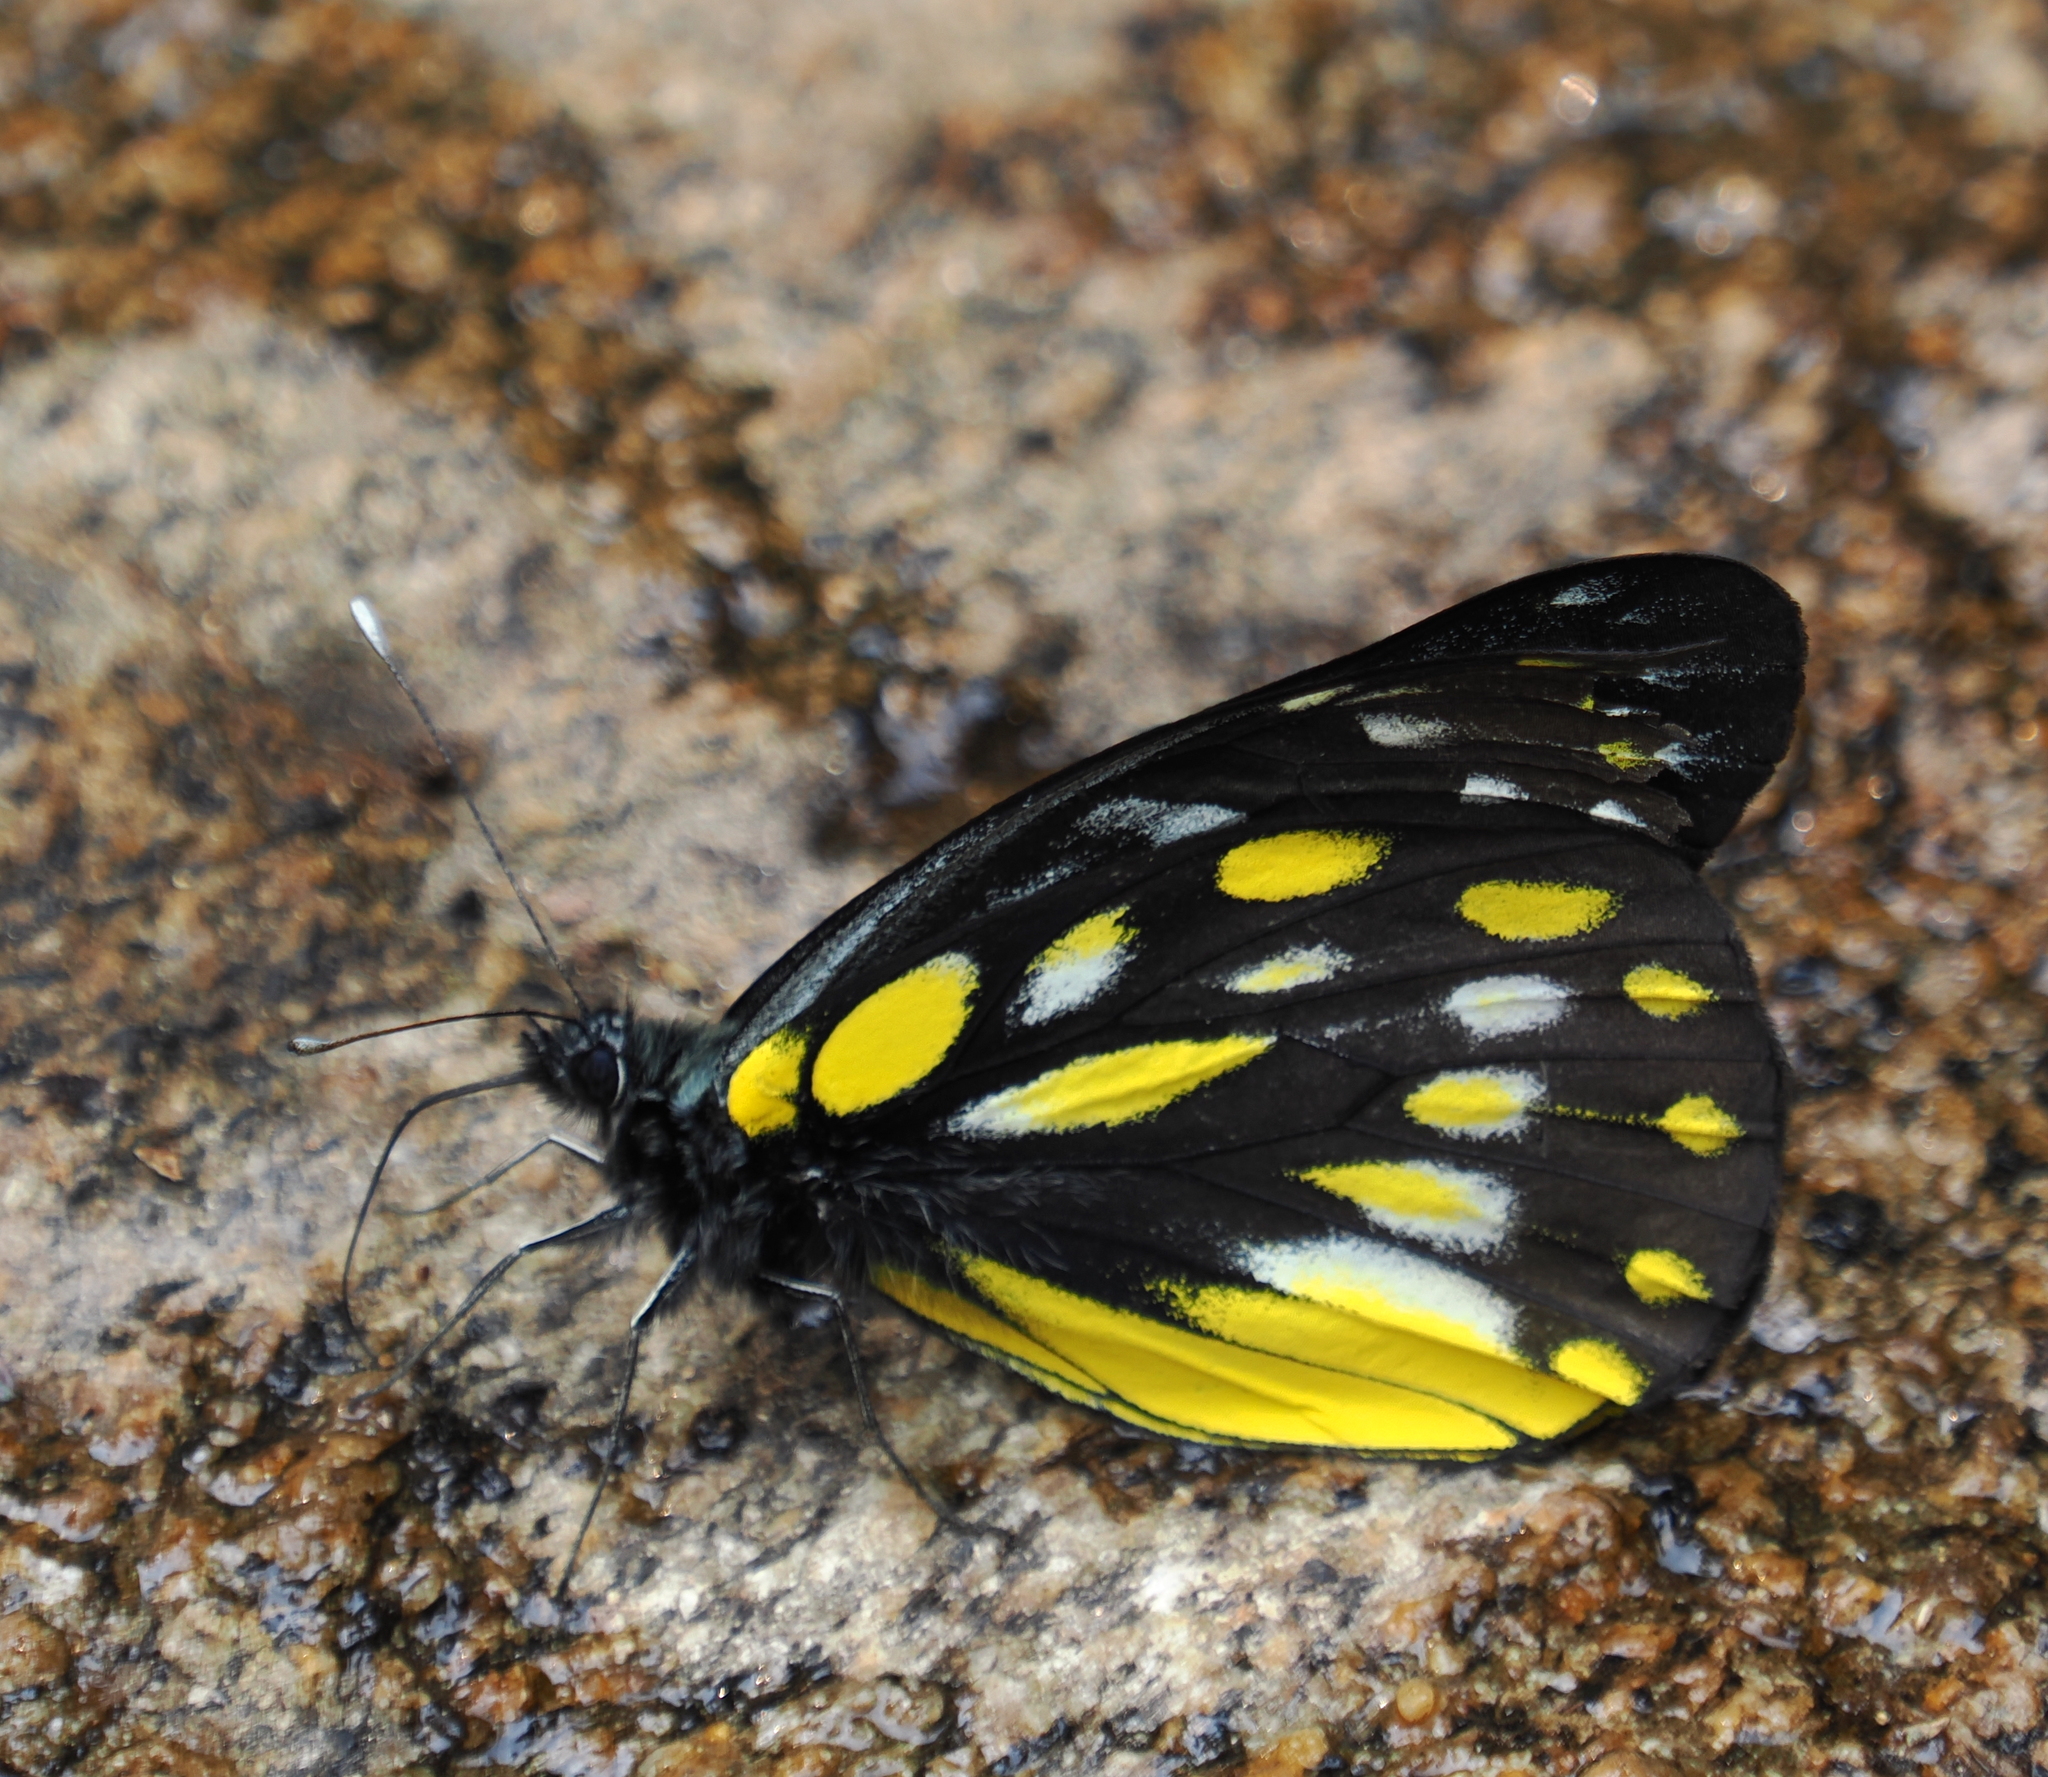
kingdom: Animalia
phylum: Arthropoda
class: Insecta
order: Lepidoptera
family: Pieridae
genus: Delias
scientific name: Delias berinda
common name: Dark jezebel
